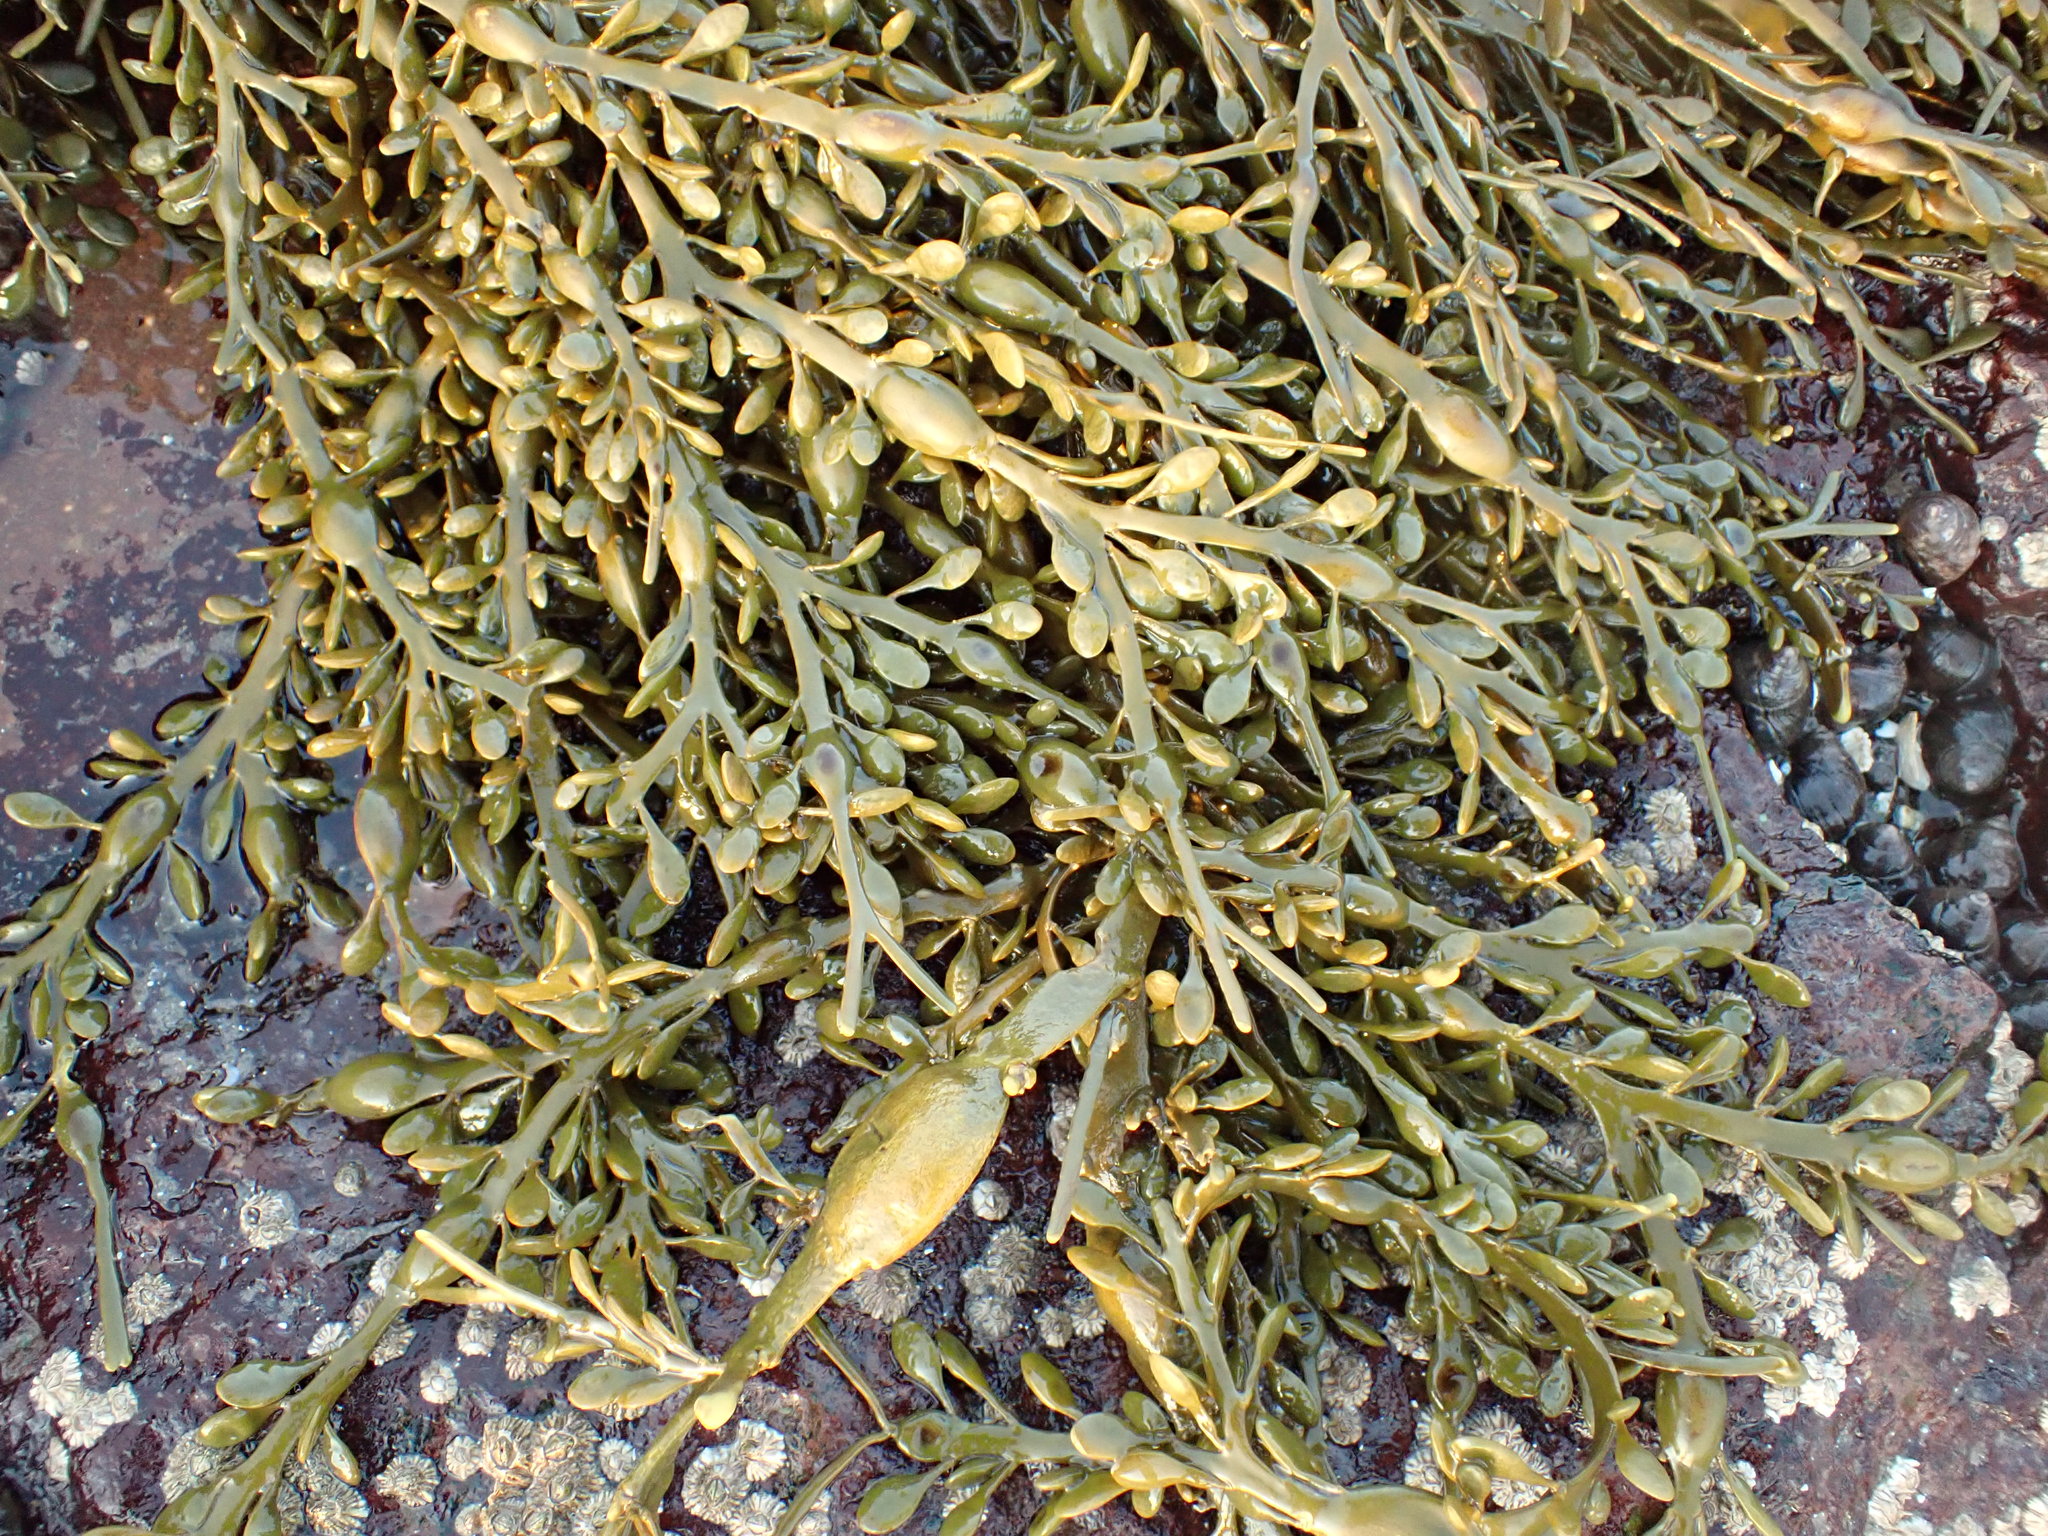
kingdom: Chromista
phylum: Ochrophyta
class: Phaeophyceae
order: Fucales
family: Fucaceae
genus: Ascophyllum
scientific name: Ascophyllum nodosum
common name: Knotted wrack
